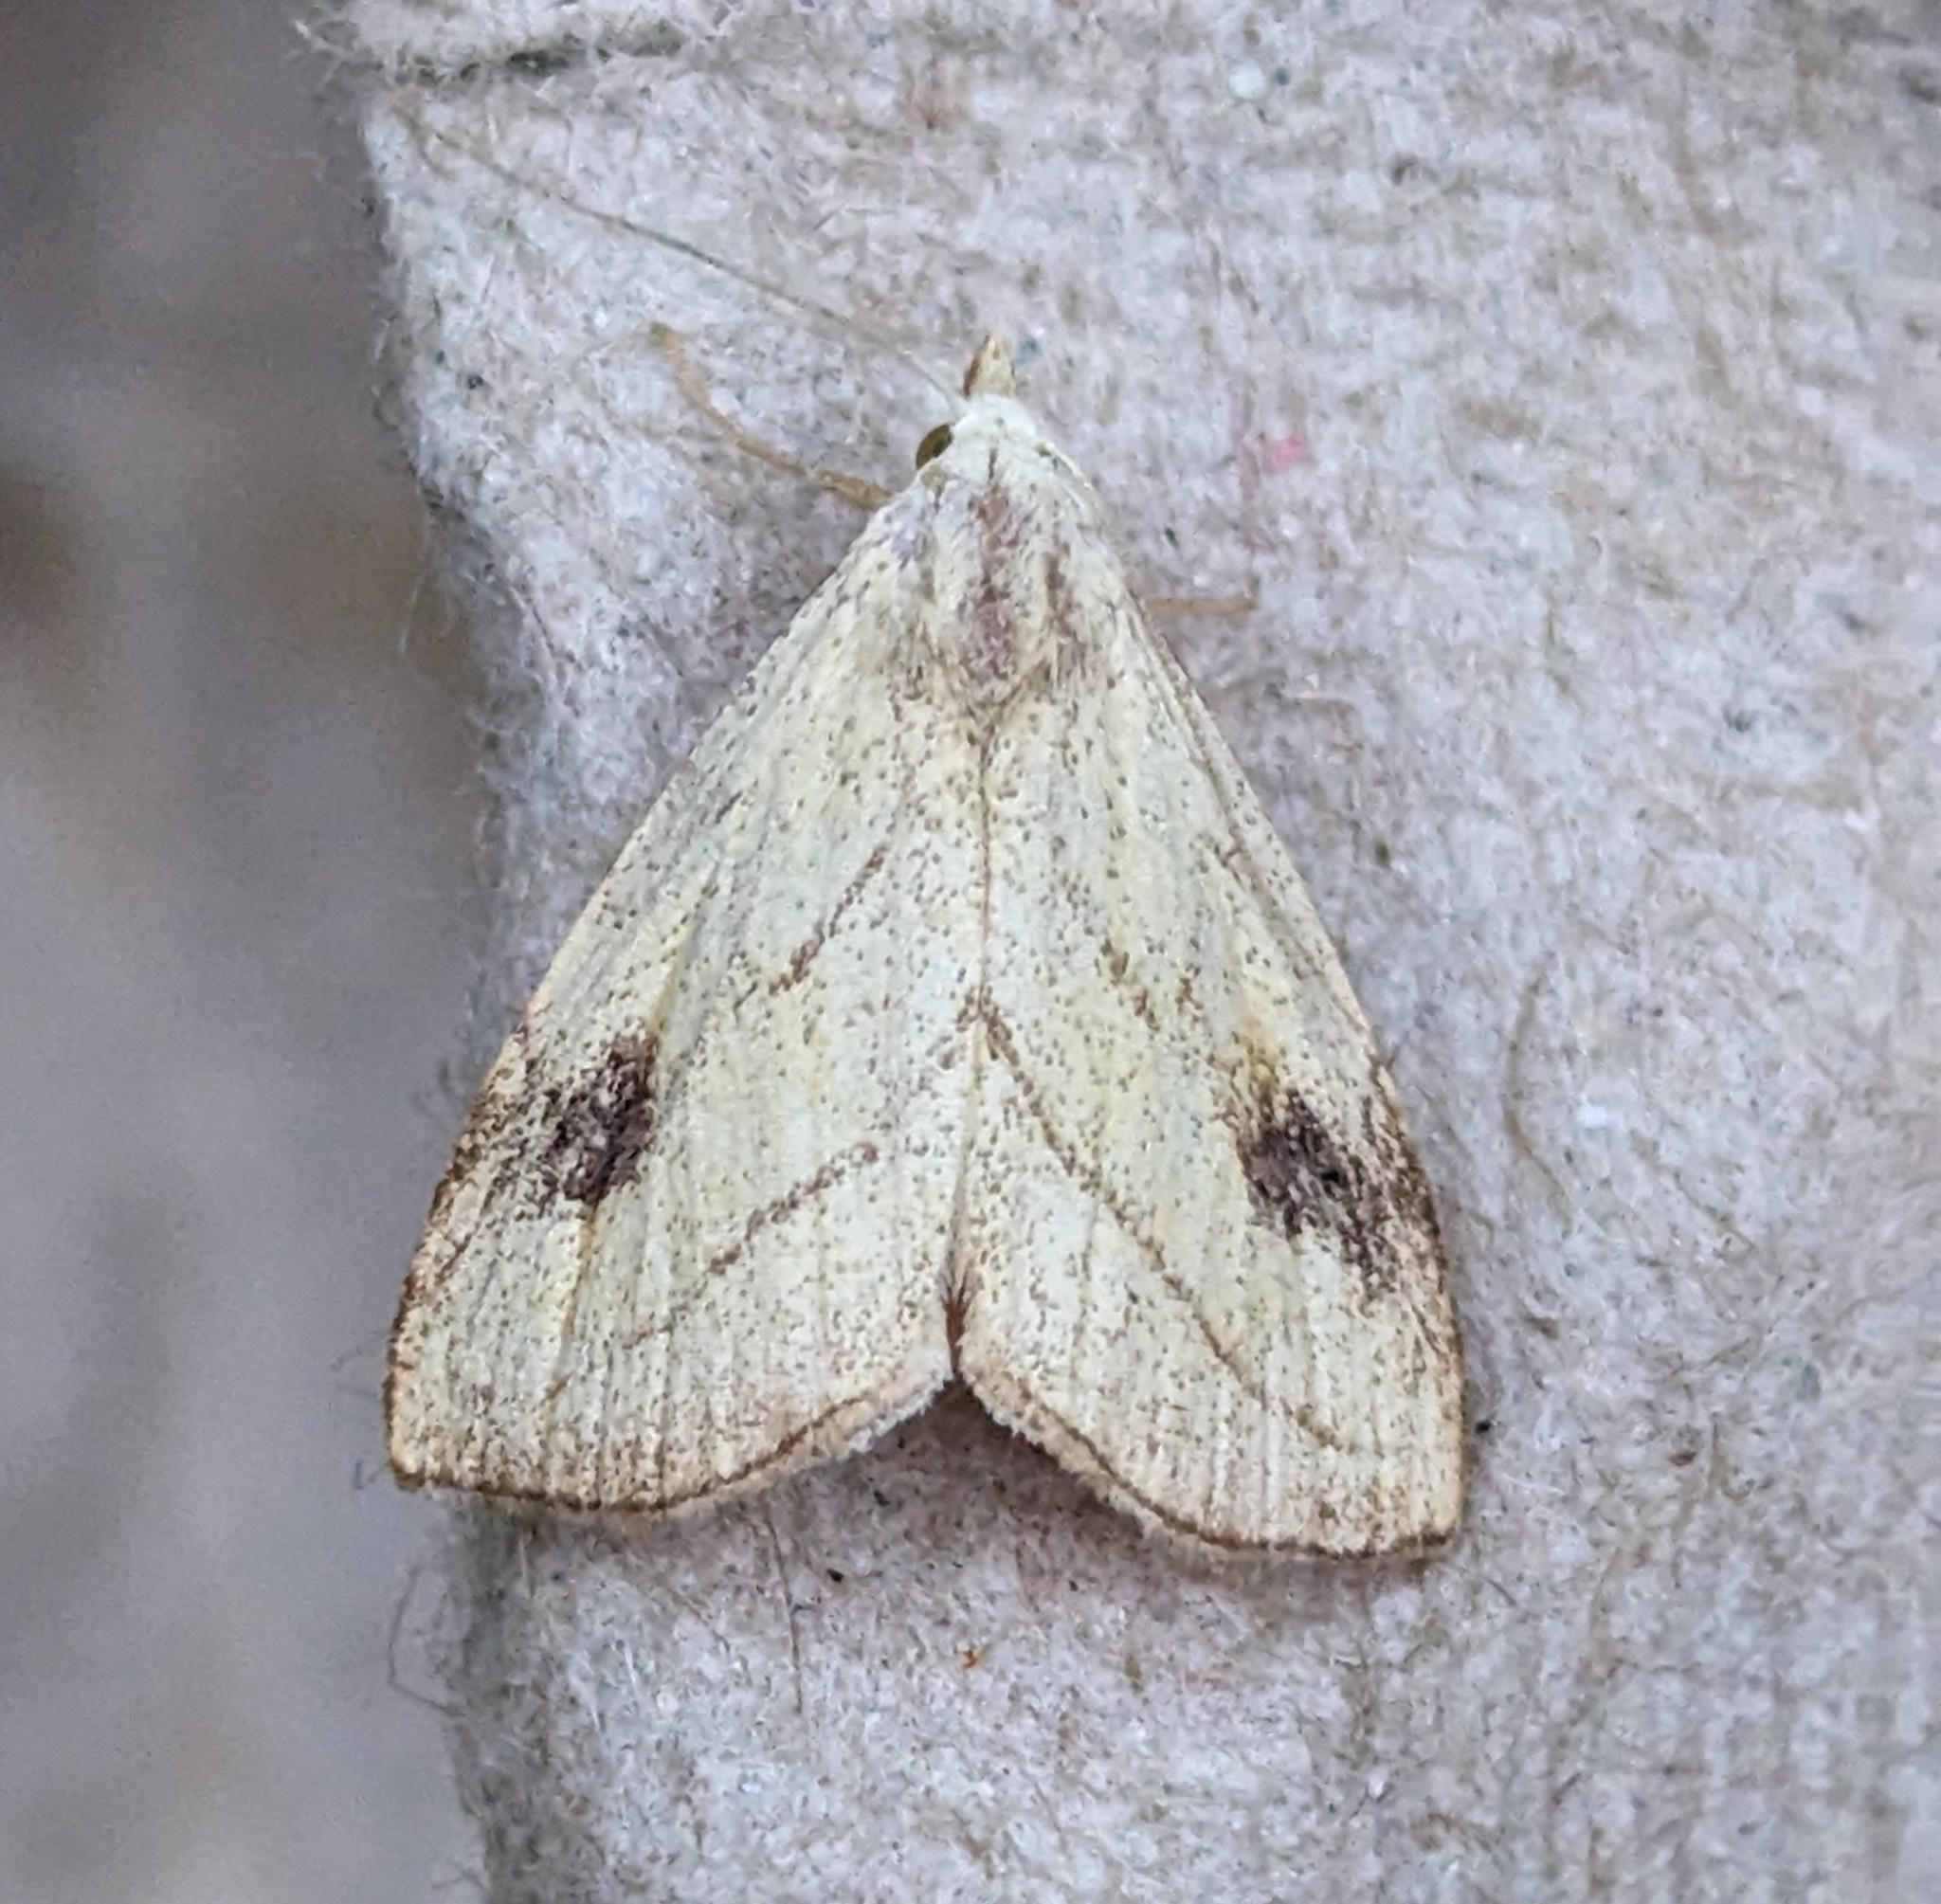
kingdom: Animalia
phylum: Arthropoda
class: Insecta
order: Lepidoptera
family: Erebidae
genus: Rivula
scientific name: Rivula propinqualis
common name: Spotted grass moth
